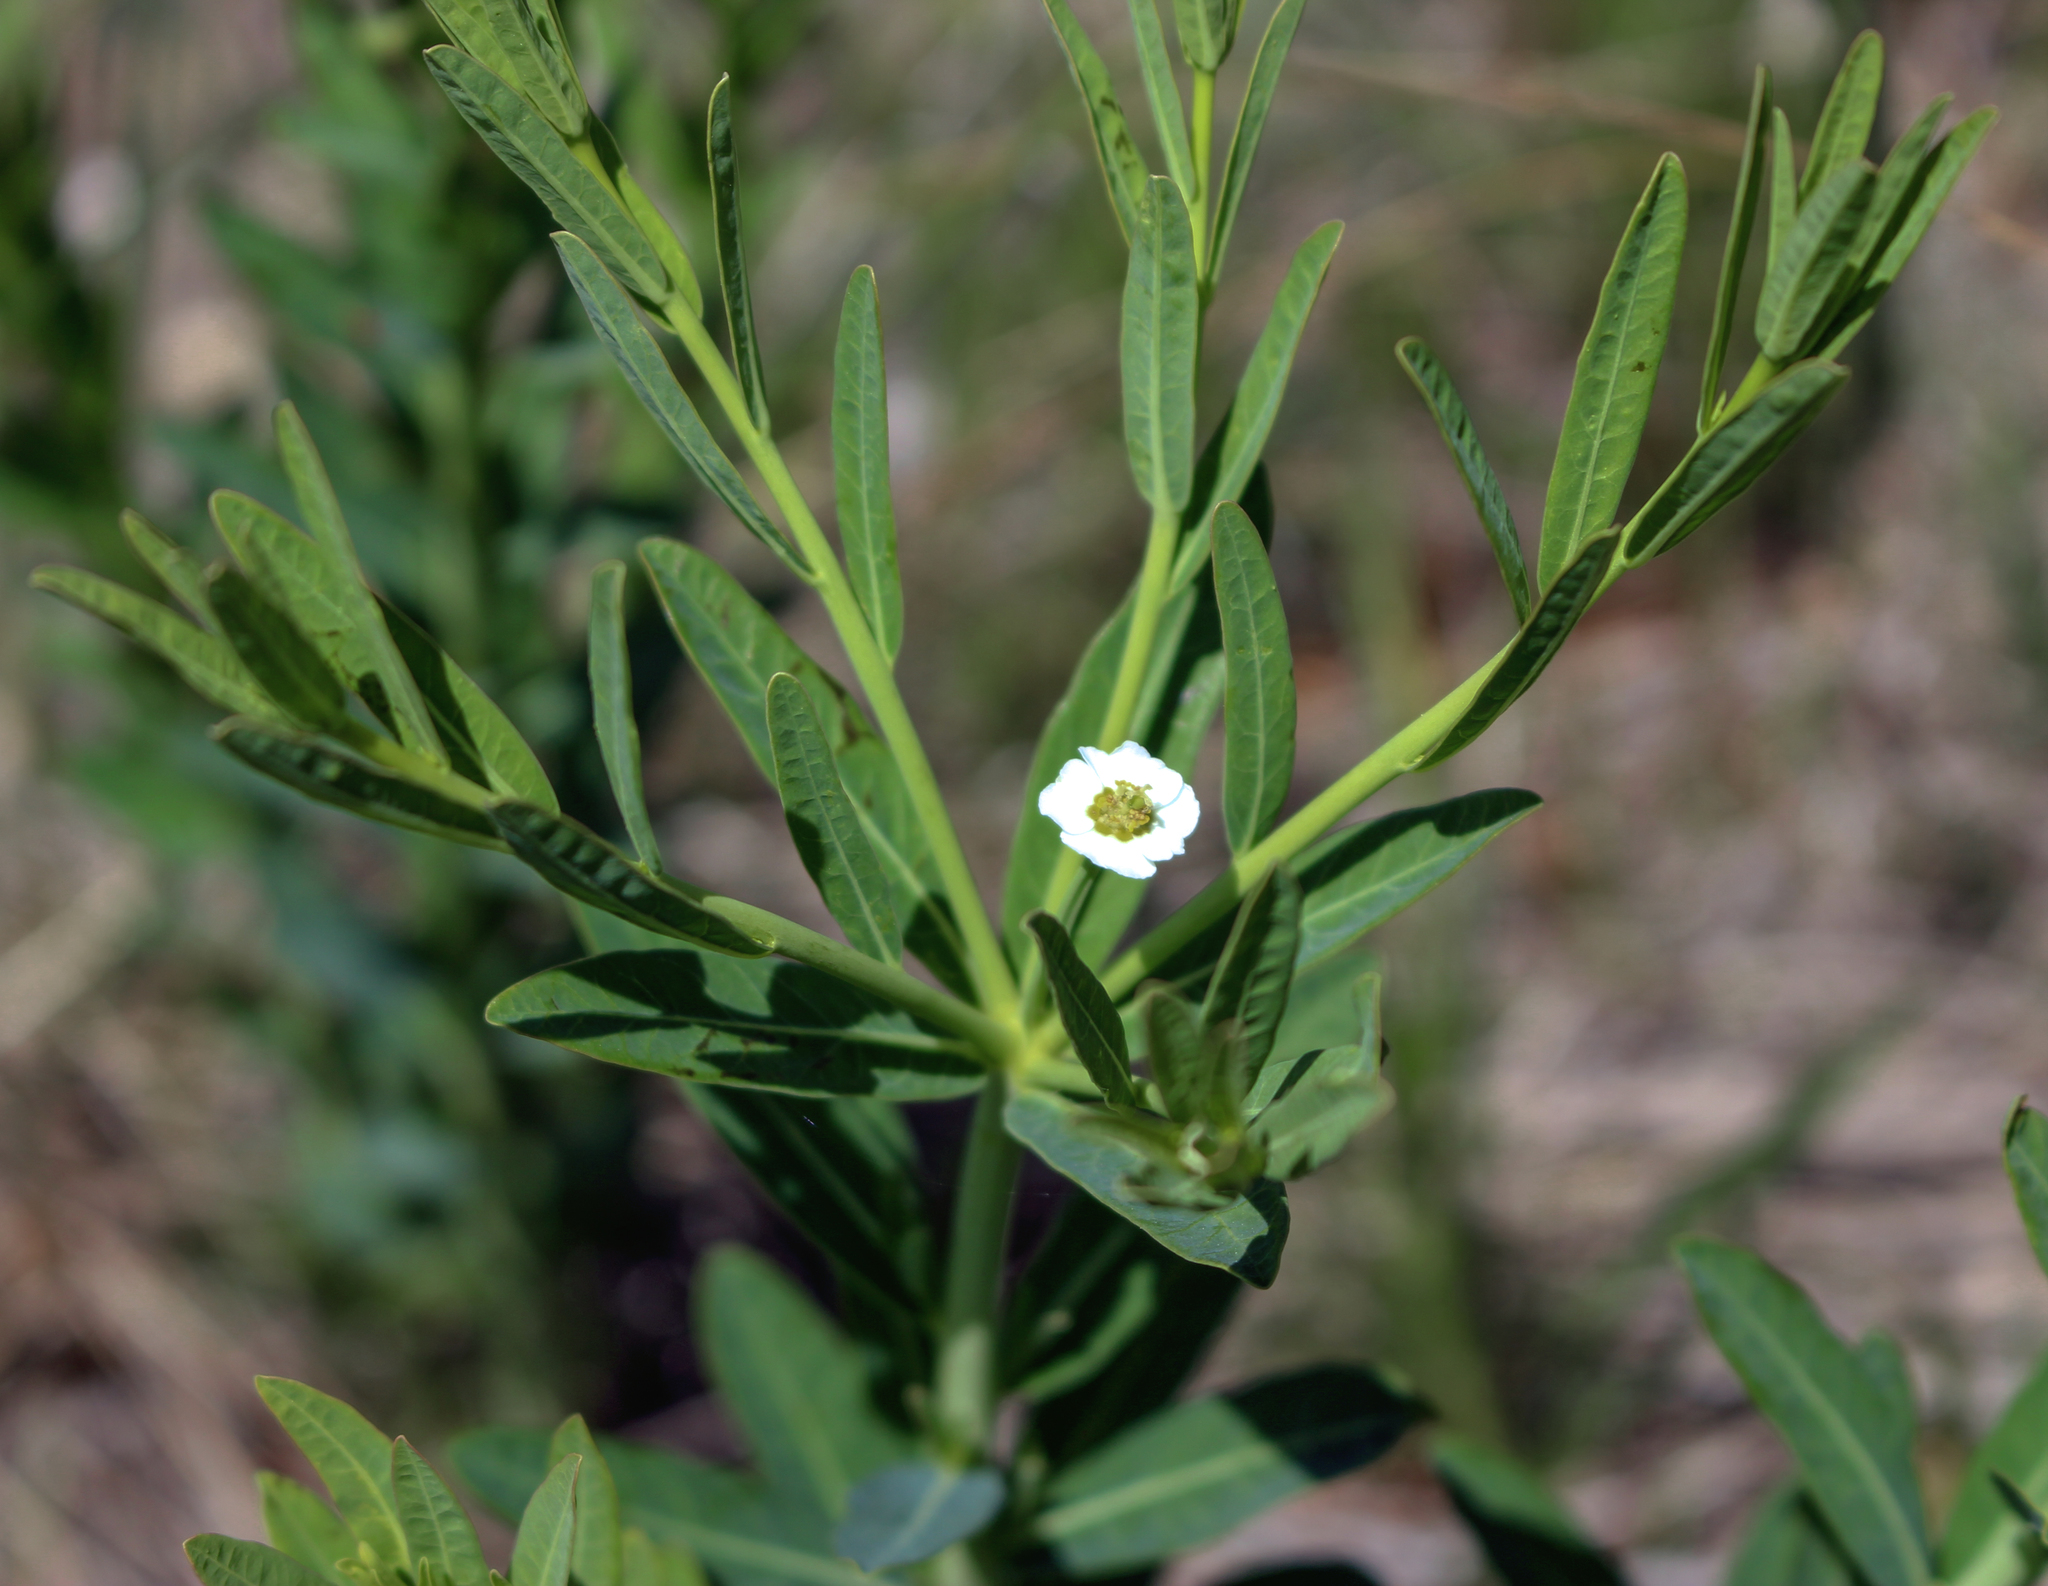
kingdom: Plantae
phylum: Tracheophyta
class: Magnoliopsida
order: Malpighiales
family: Euphorbiaceae
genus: Euphorbia
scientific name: Euphorbia corollata
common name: Flowering spurge
